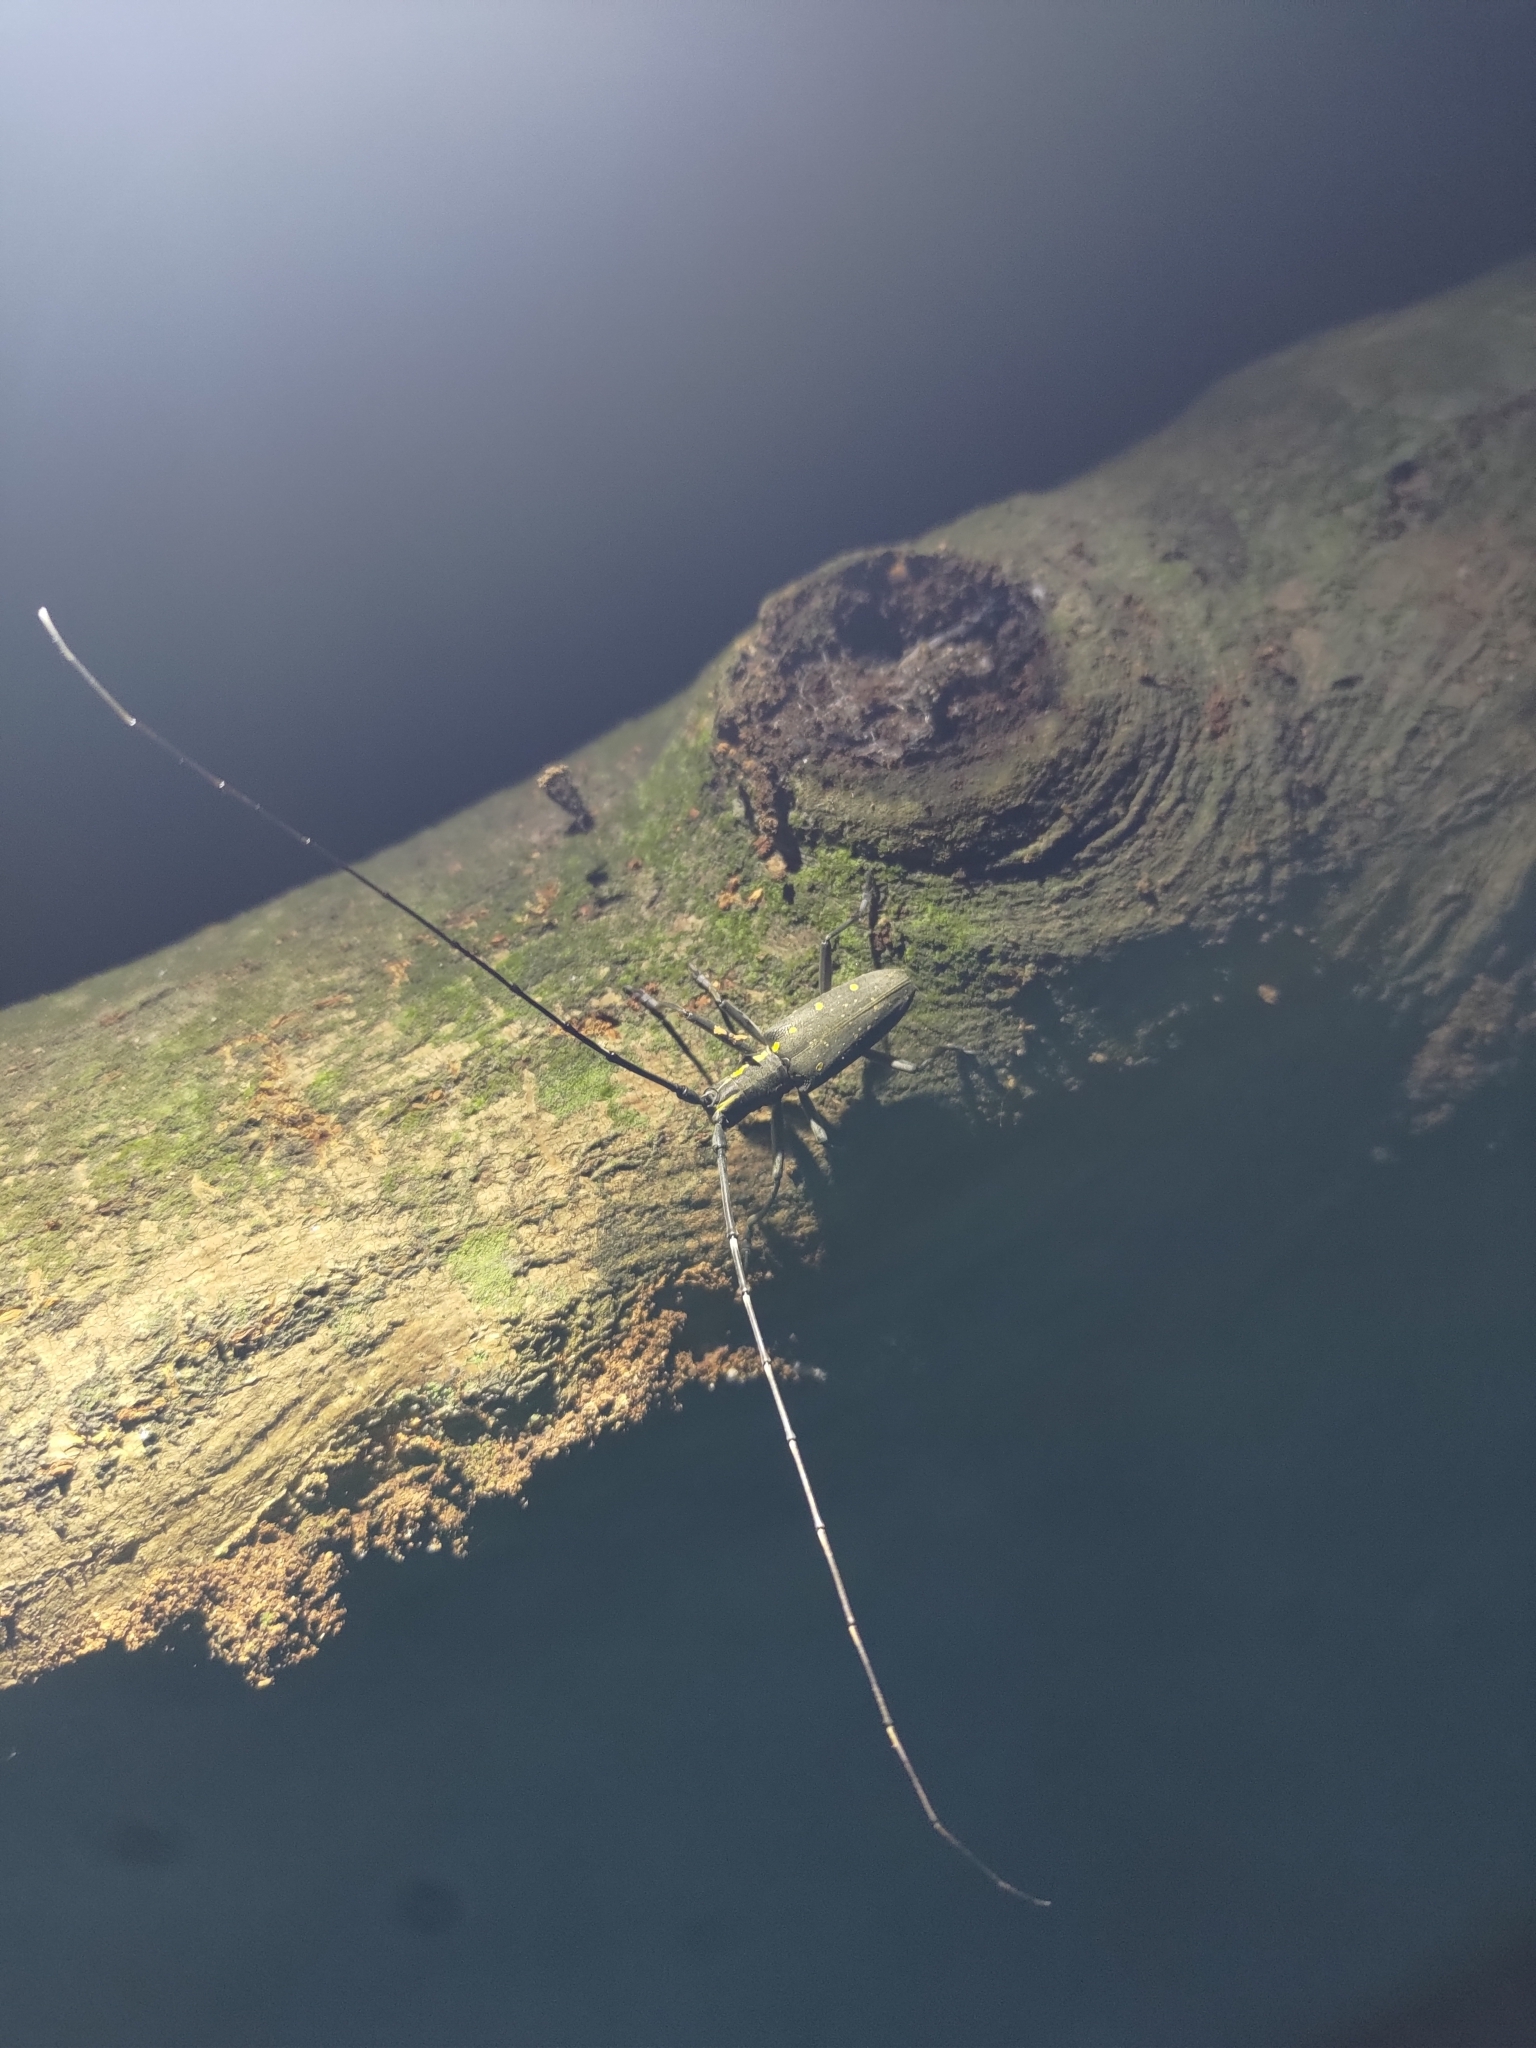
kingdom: Animalia
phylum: Arthropoda
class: Insecta
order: Coleoptera
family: Cerambycidae
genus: Psacothea
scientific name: Psacothea hilaris
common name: Yellow-spotted longicorn beetle
